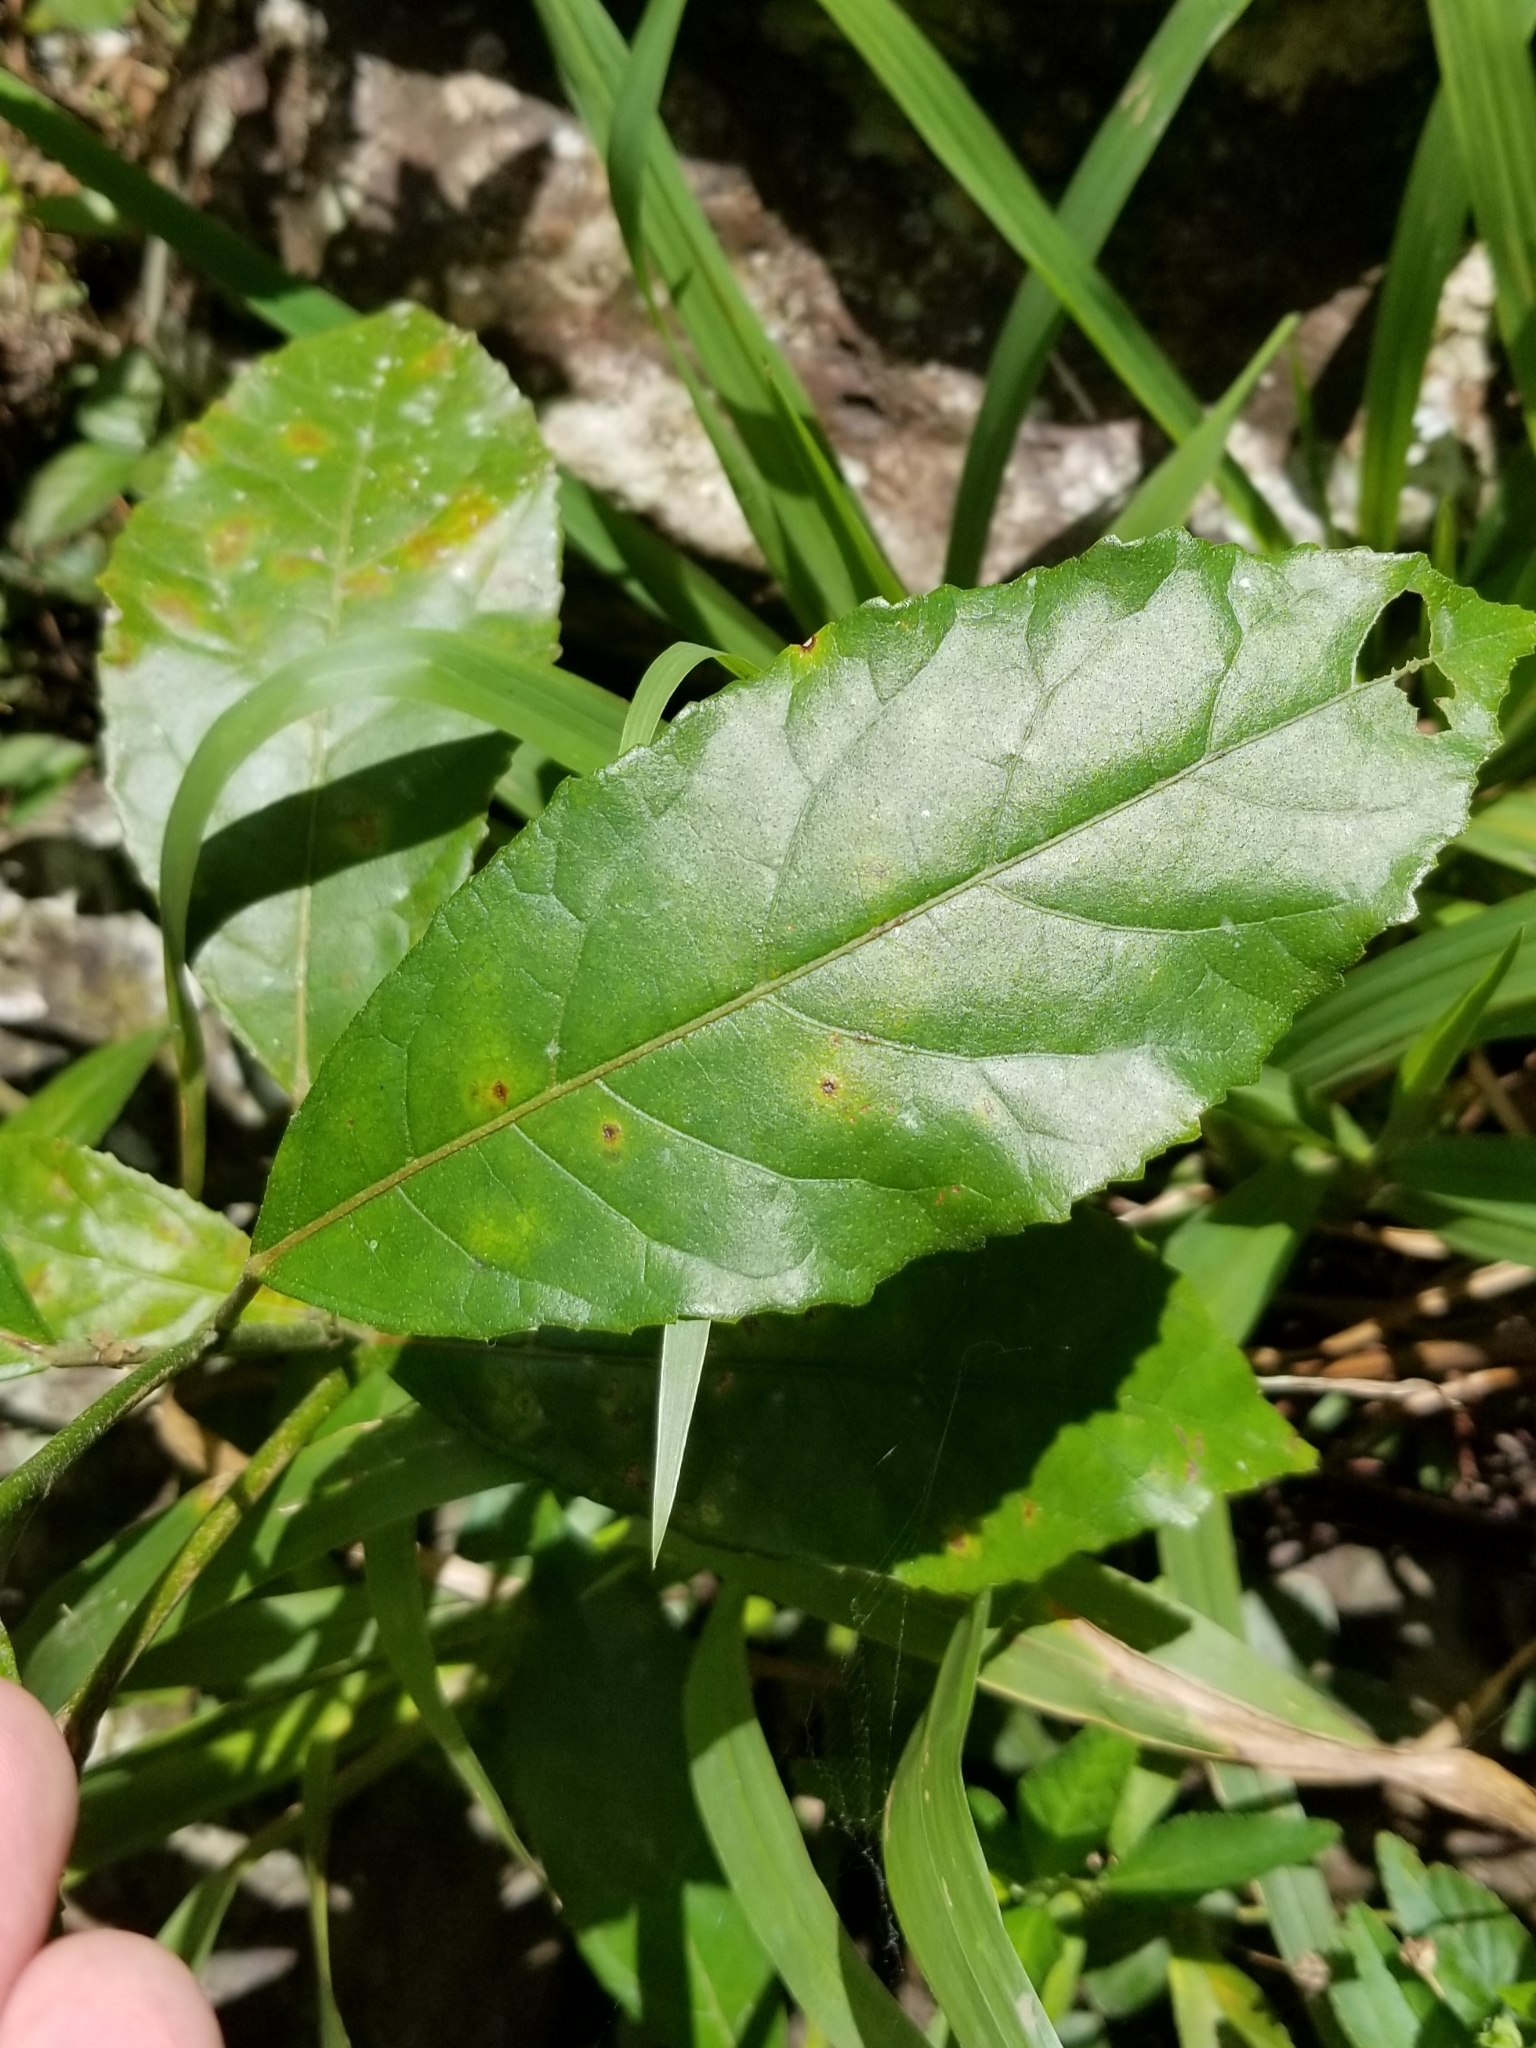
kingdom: Plantae
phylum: Tracheophyta
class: Magnoliopsida
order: Malvales
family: Malvaceae
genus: Pavonia
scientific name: Pavonia fruticosa
